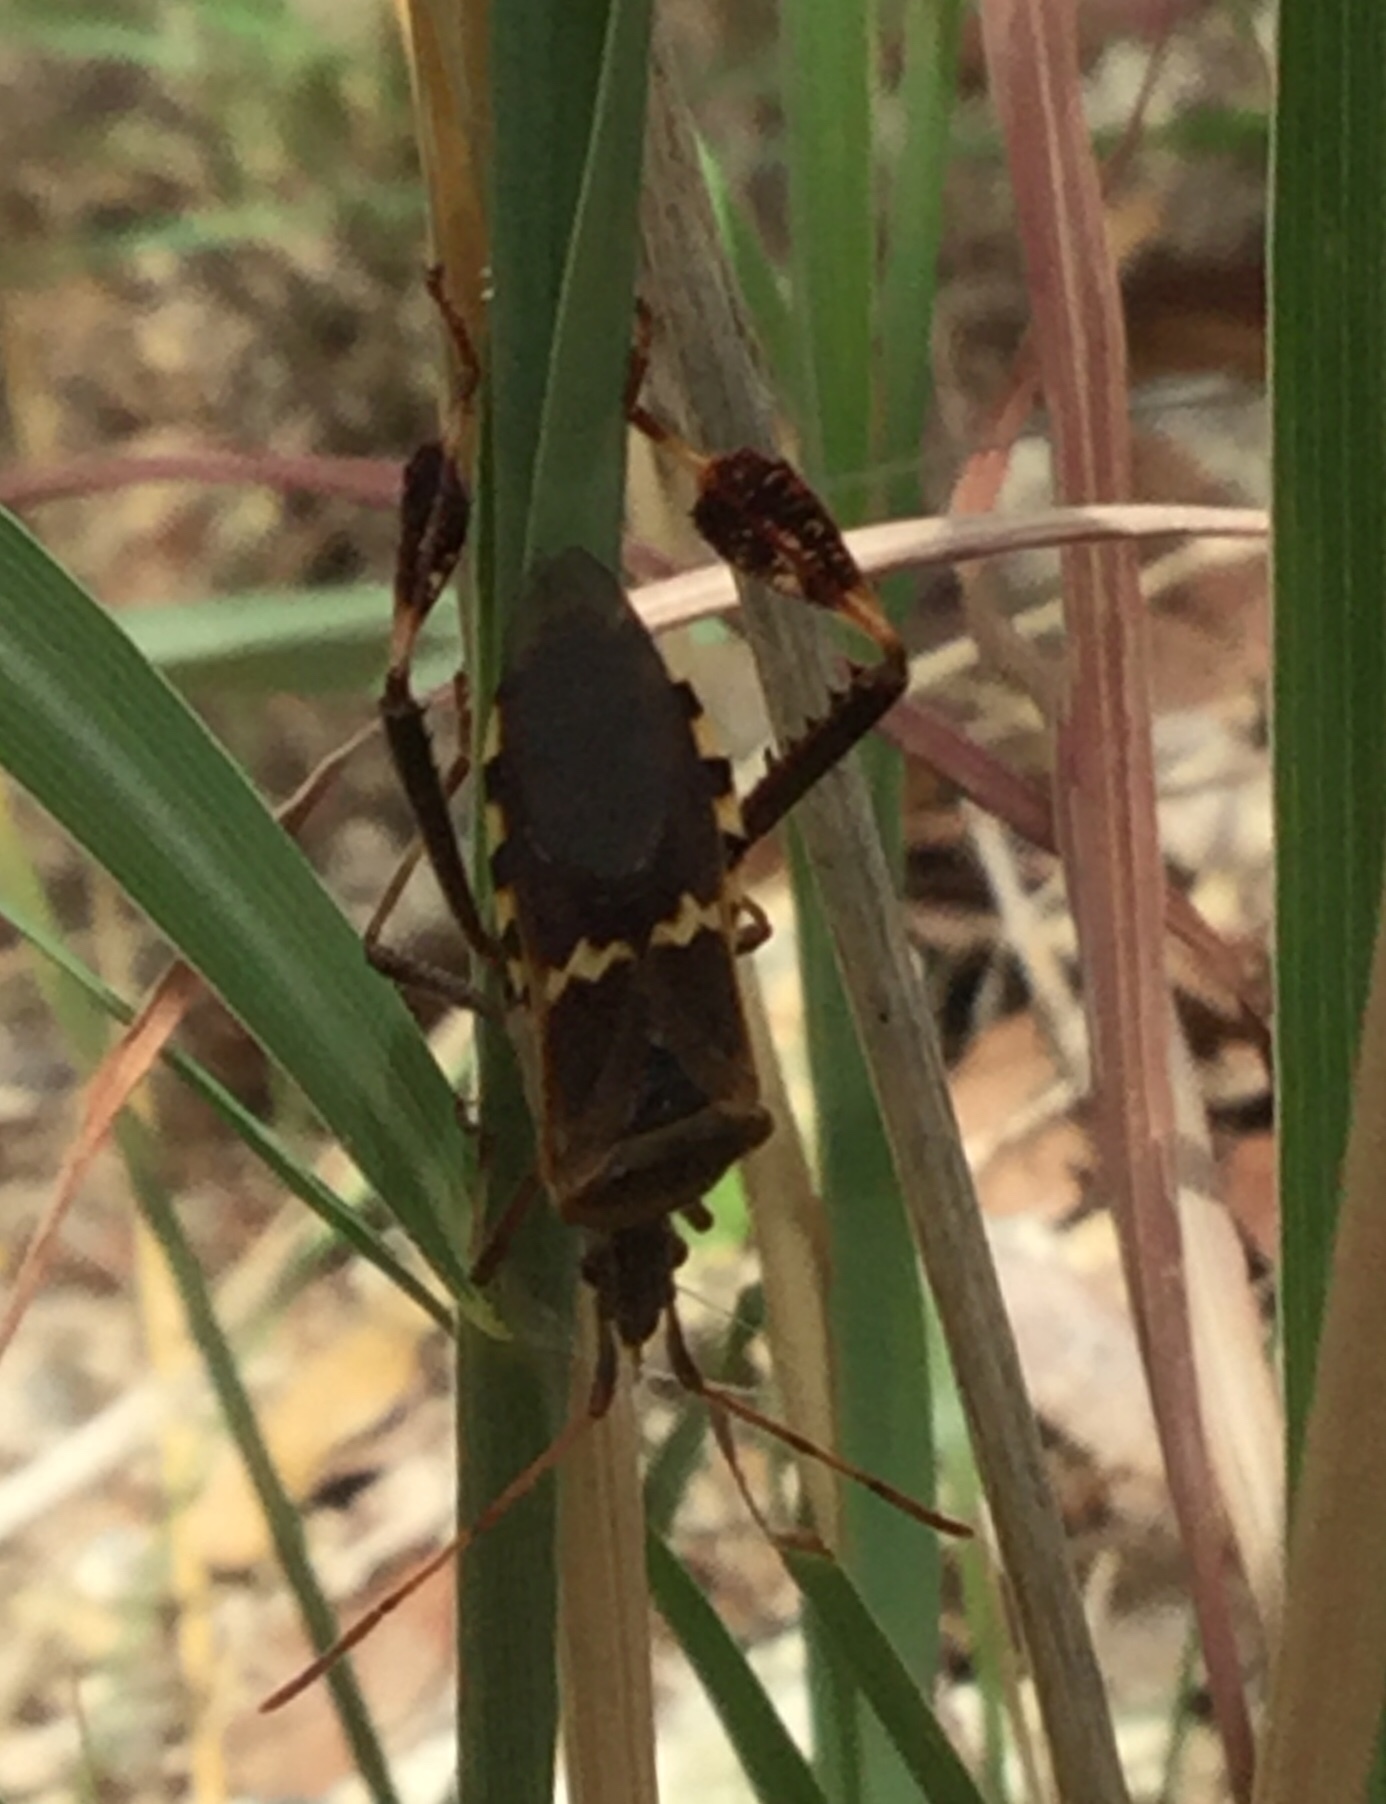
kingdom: Animalia
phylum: Arthropoda
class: Insecta
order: Hemiptera
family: Coreidae
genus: Leptoglossus
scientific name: Leptoglossus clypealis
